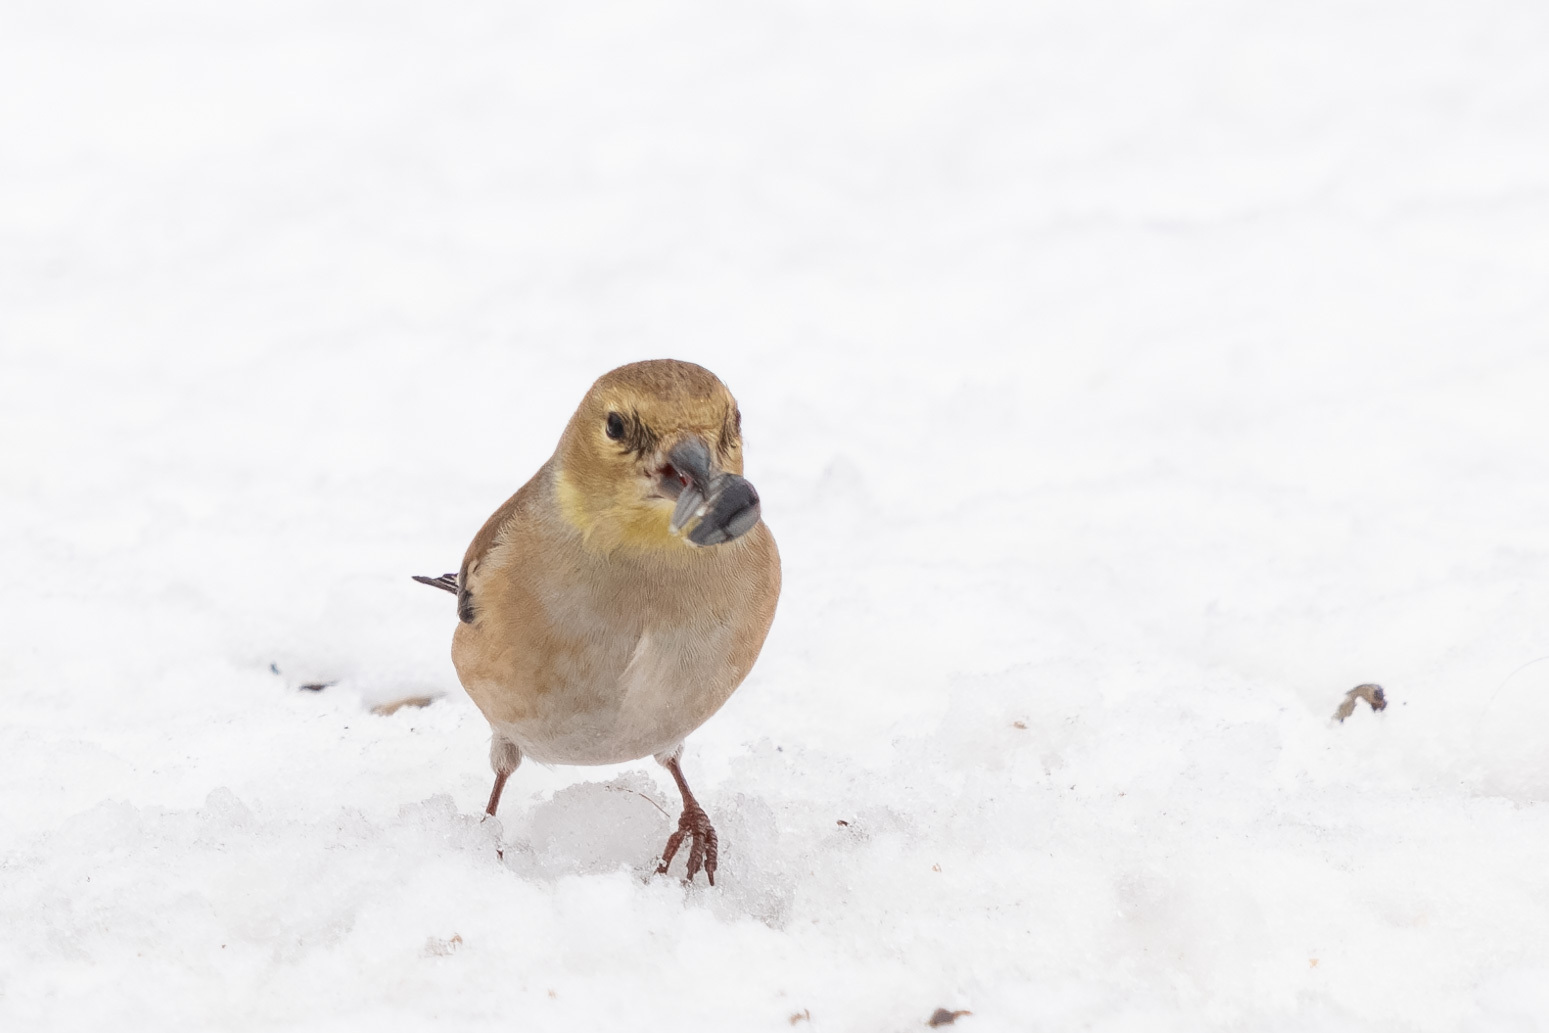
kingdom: Animalia
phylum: Chordata
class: Aves
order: Passeriformes
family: Fringillidae
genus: Spinus
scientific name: Spinus tristis
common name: American goldfinch
